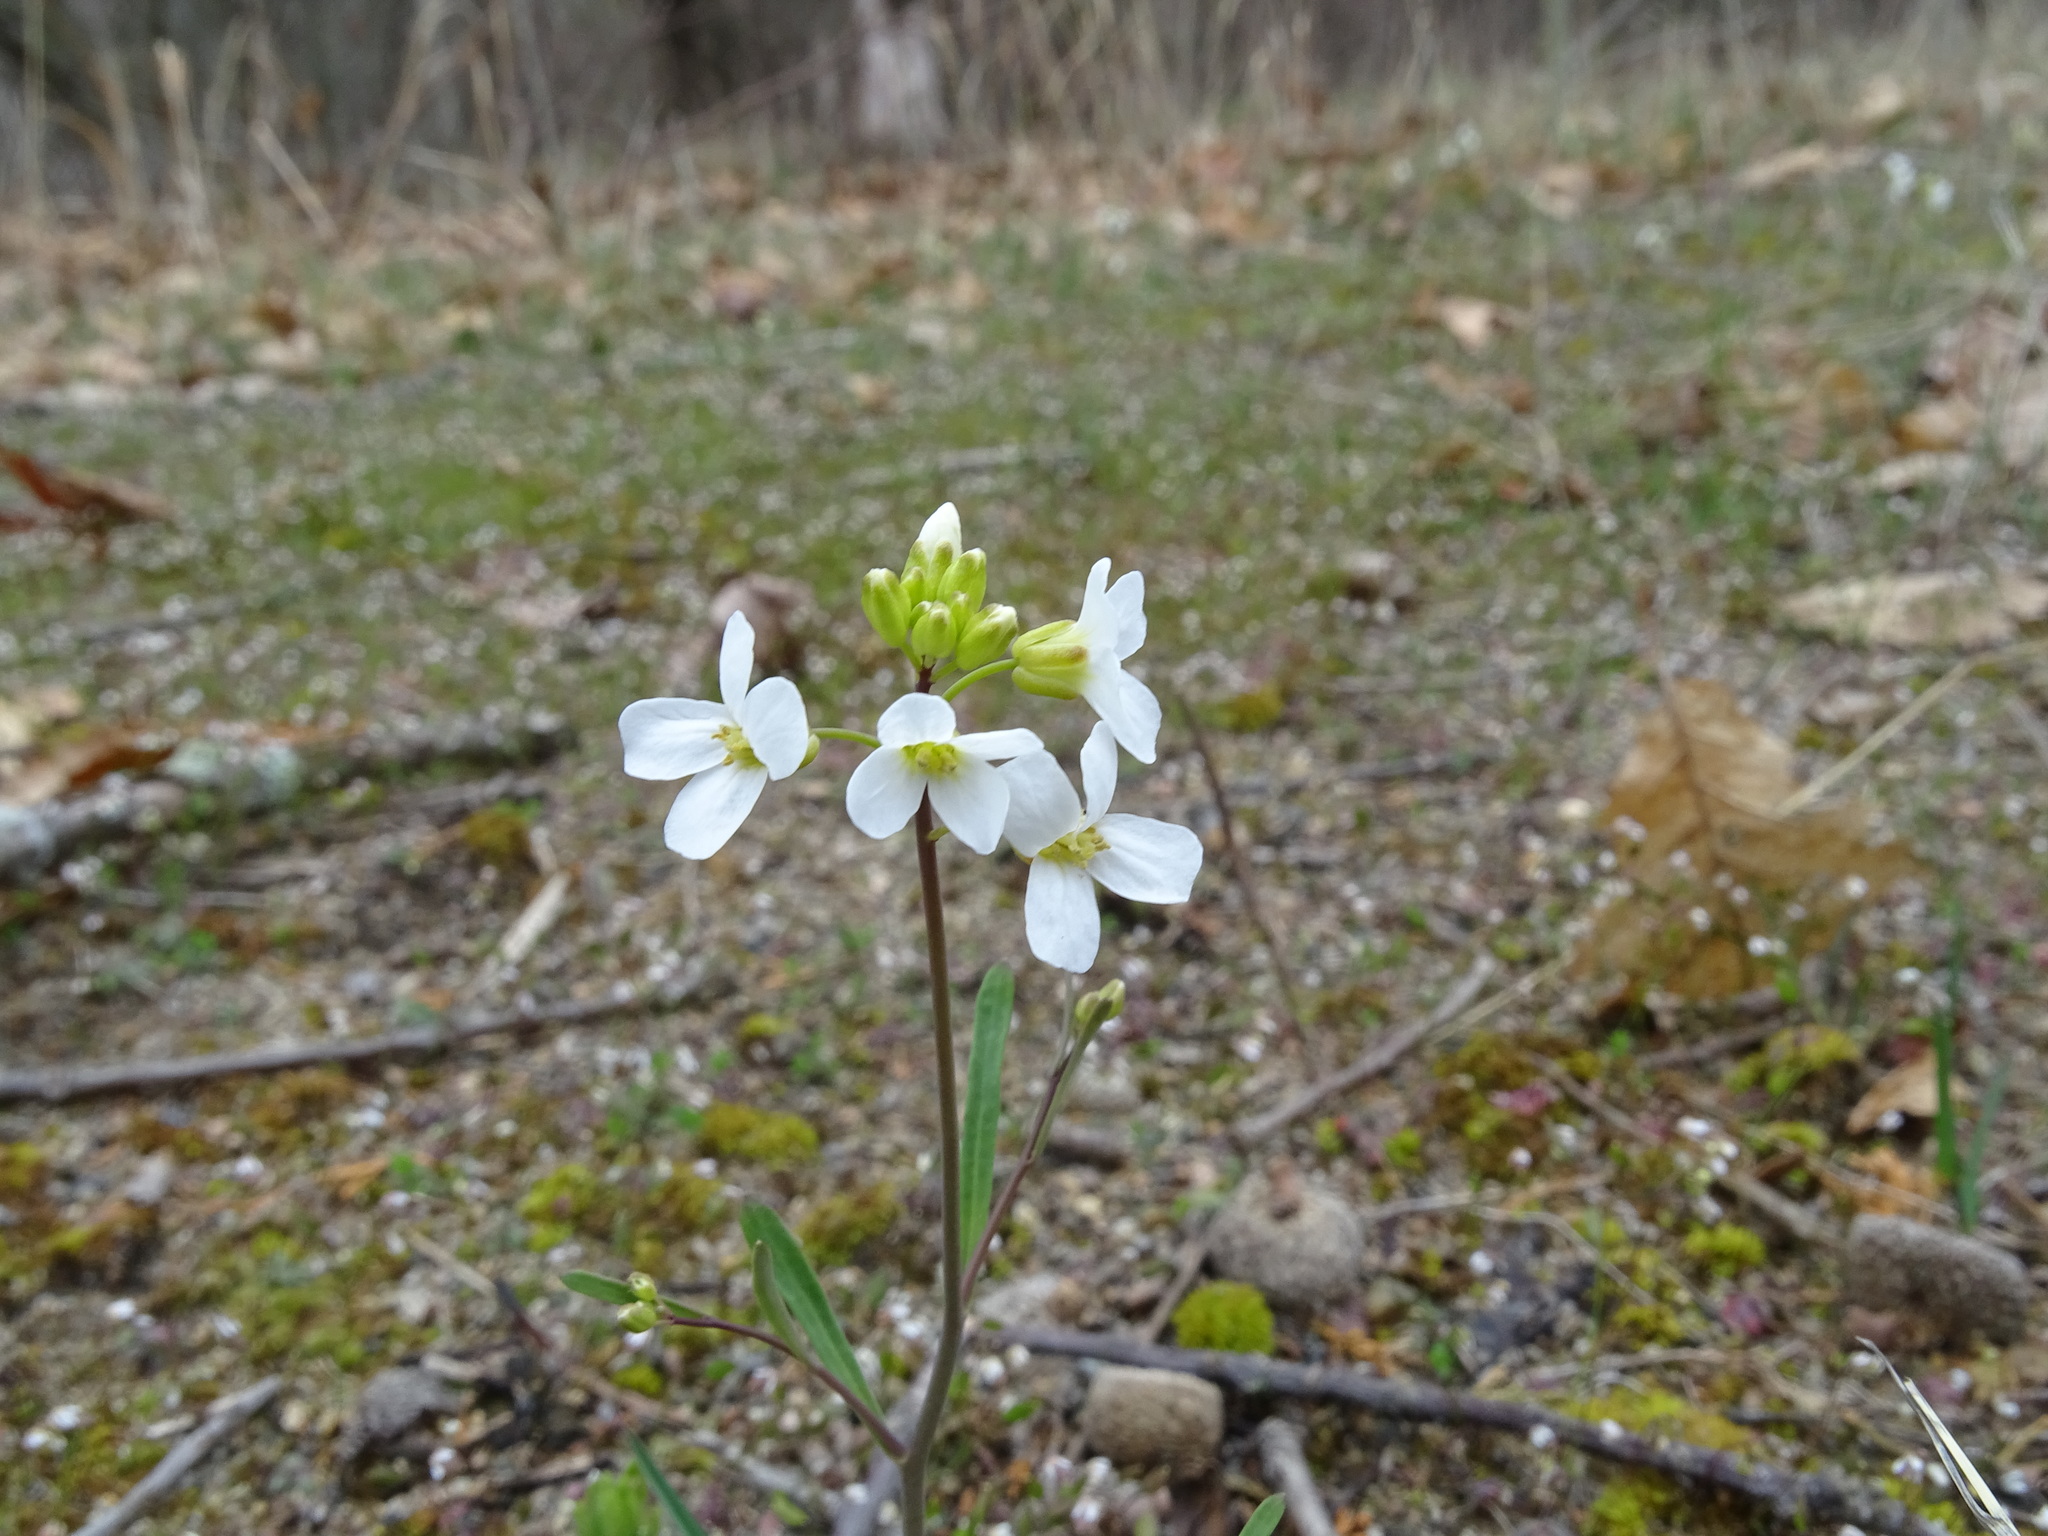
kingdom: Plantae
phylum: Tracheophyta
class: Magnoliopsida
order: Brassicales
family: Brassicaceae
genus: Arabidopsis
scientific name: Arabidopsis lyrata
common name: Lyrate rockcress
